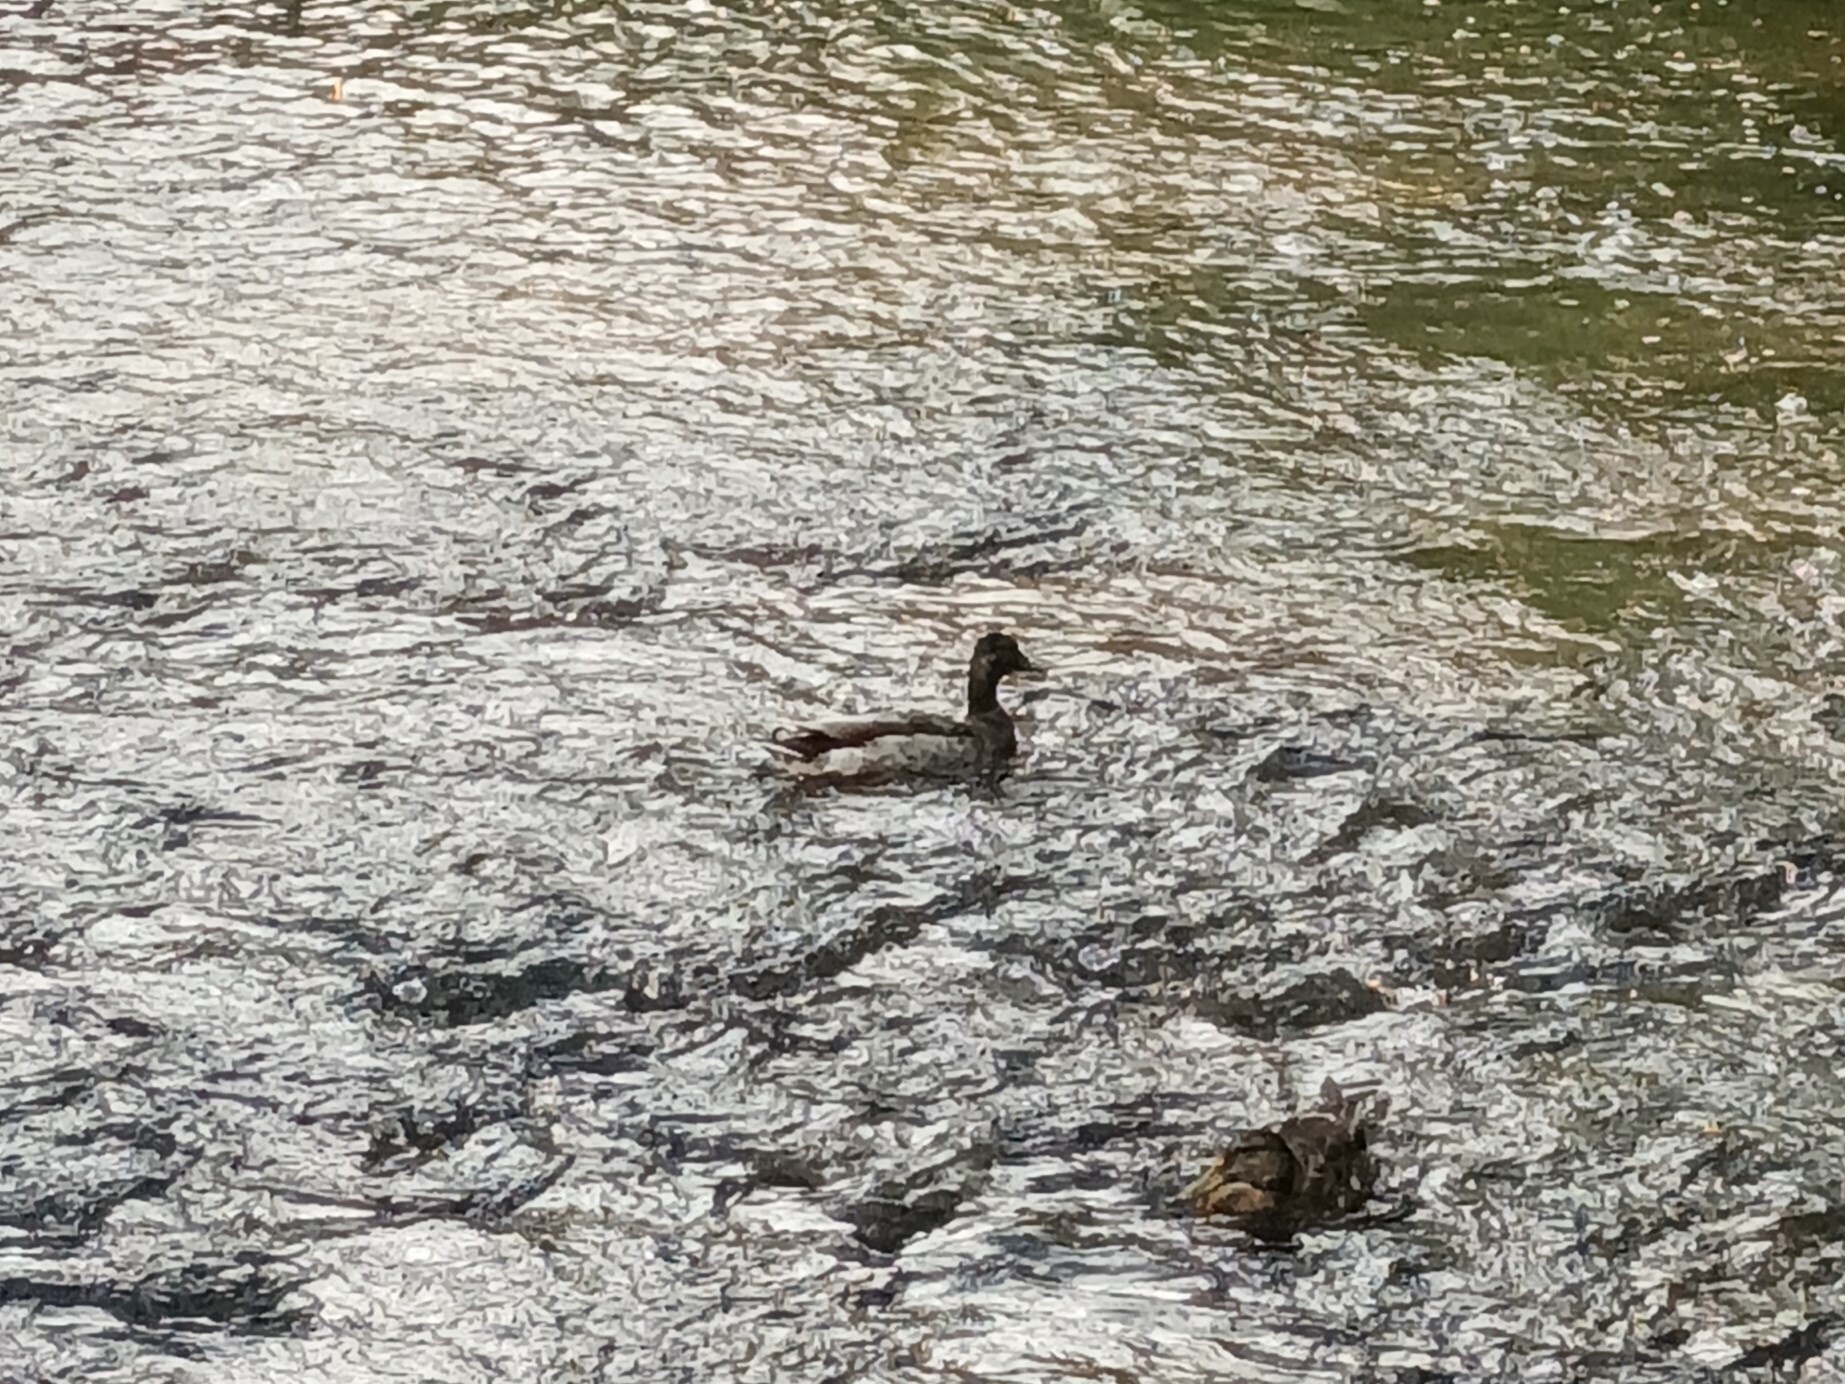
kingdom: Animalia
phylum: Chordata
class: Aves
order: Anseriformes
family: Anatidae
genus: Anas
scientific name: Anas platyrhynchos
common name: Mallard
